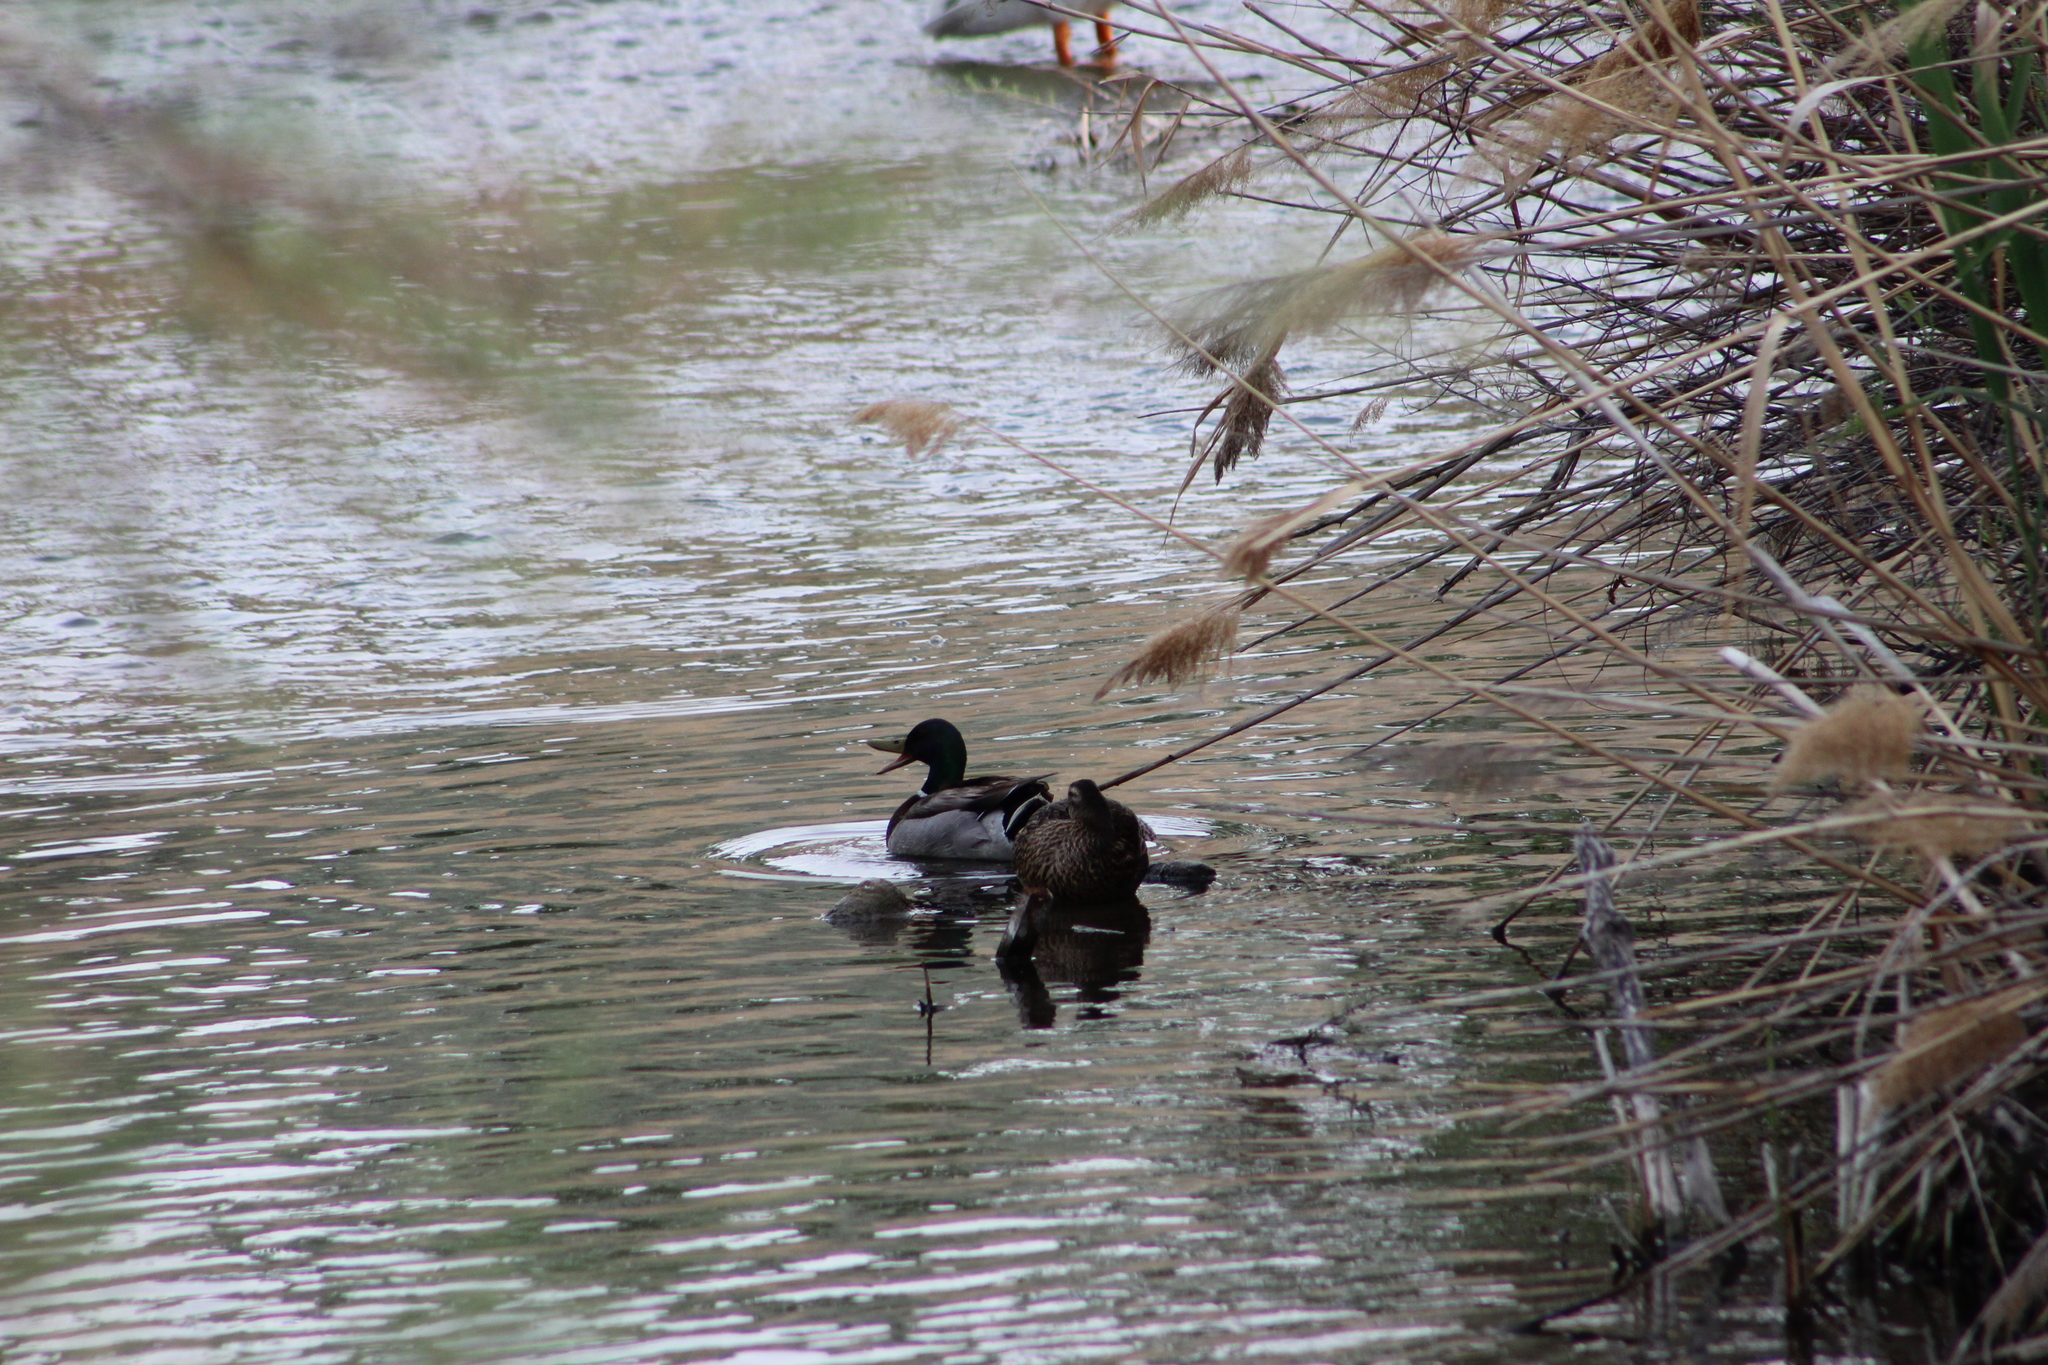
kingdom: Animalia
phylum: Chordata
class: Aves
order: Anseriformes
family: Anatidae
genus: Anas
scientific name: Anas platyrhynchos
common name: Mallard
